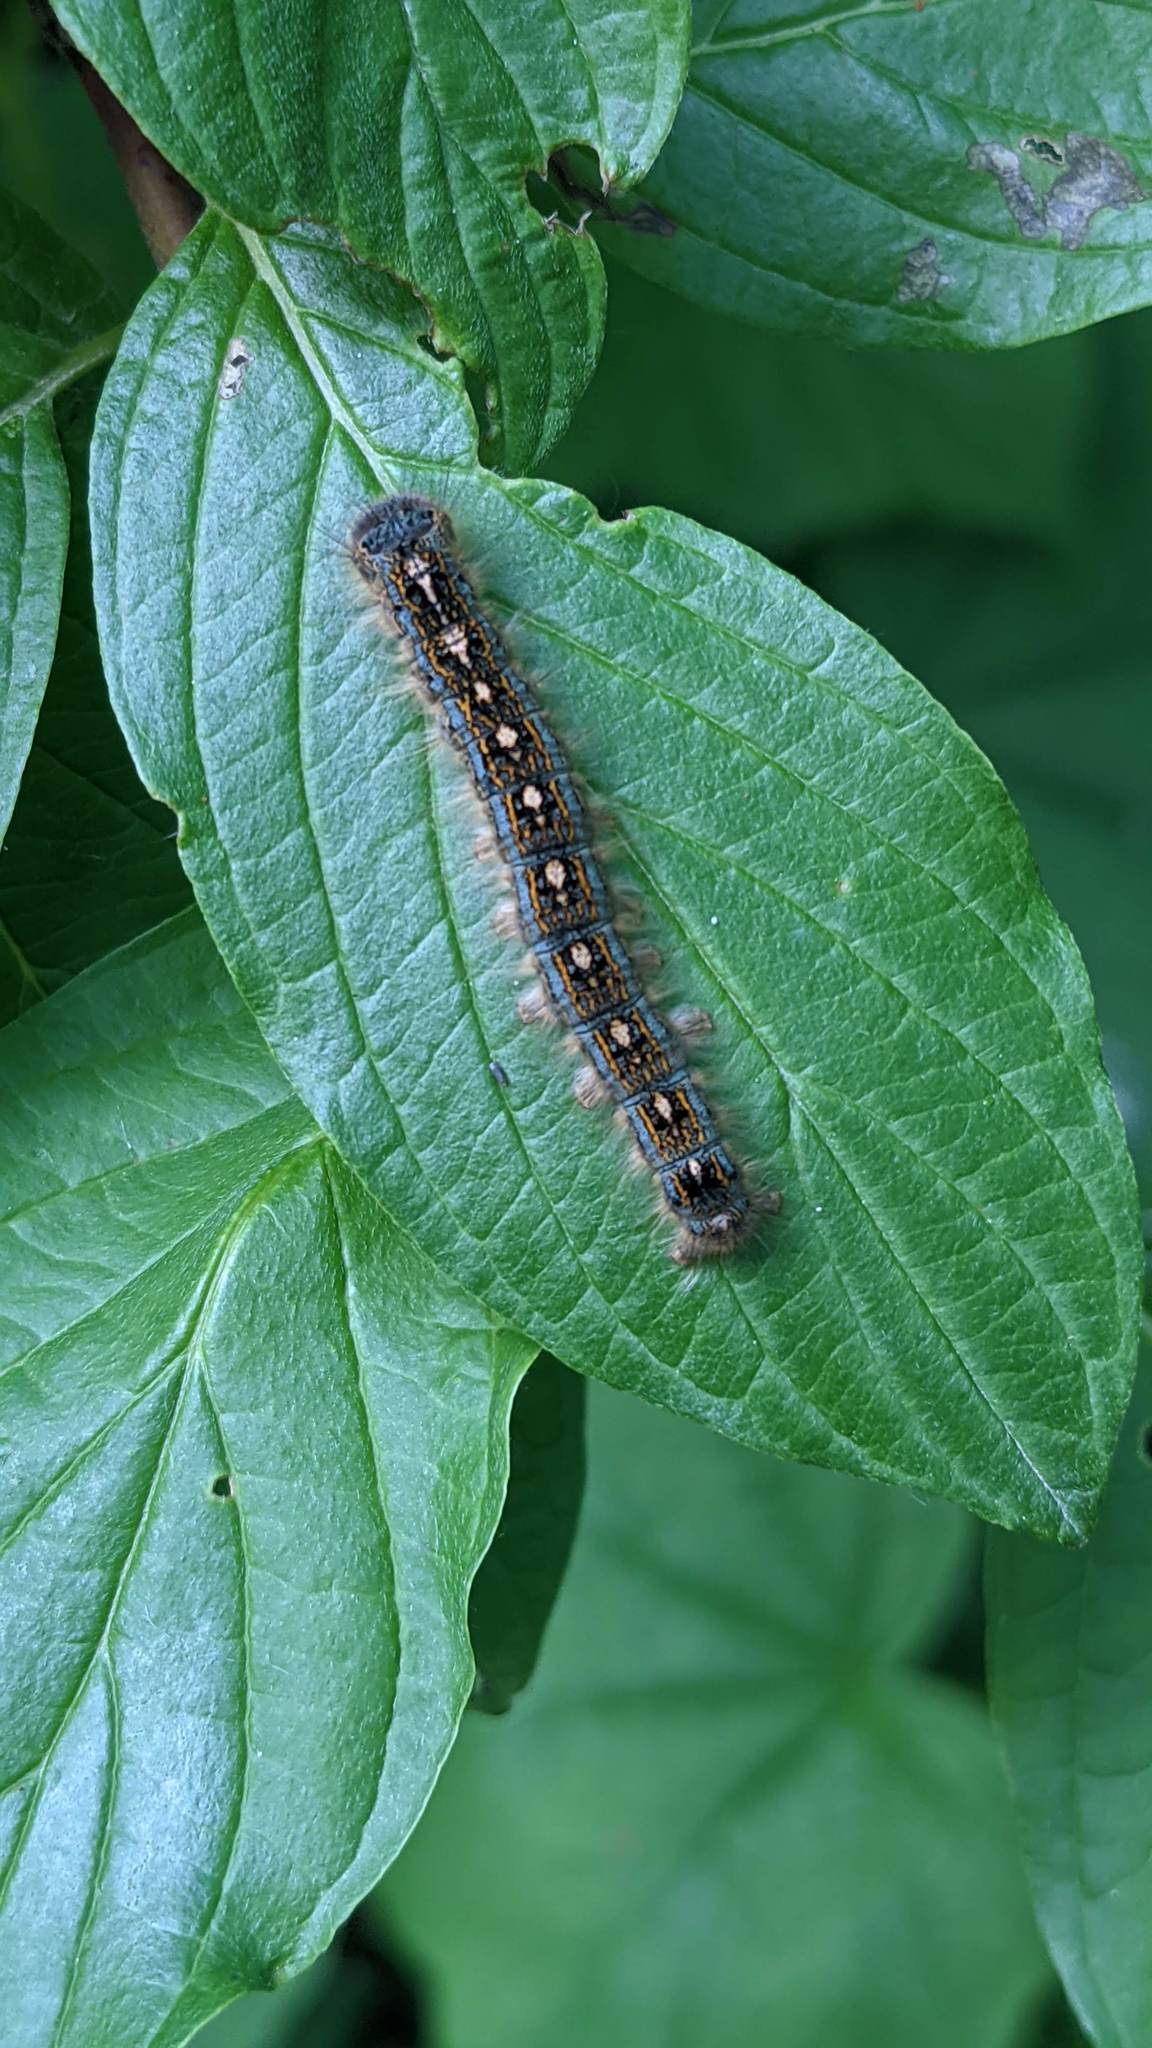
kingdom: Animalia
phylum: Arthropoda
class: Insecta
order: Lepidoptera
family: Lasiocampidae
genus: Malacosoma
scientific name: Malacosoma disstria
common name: Forest tent caterpillar
